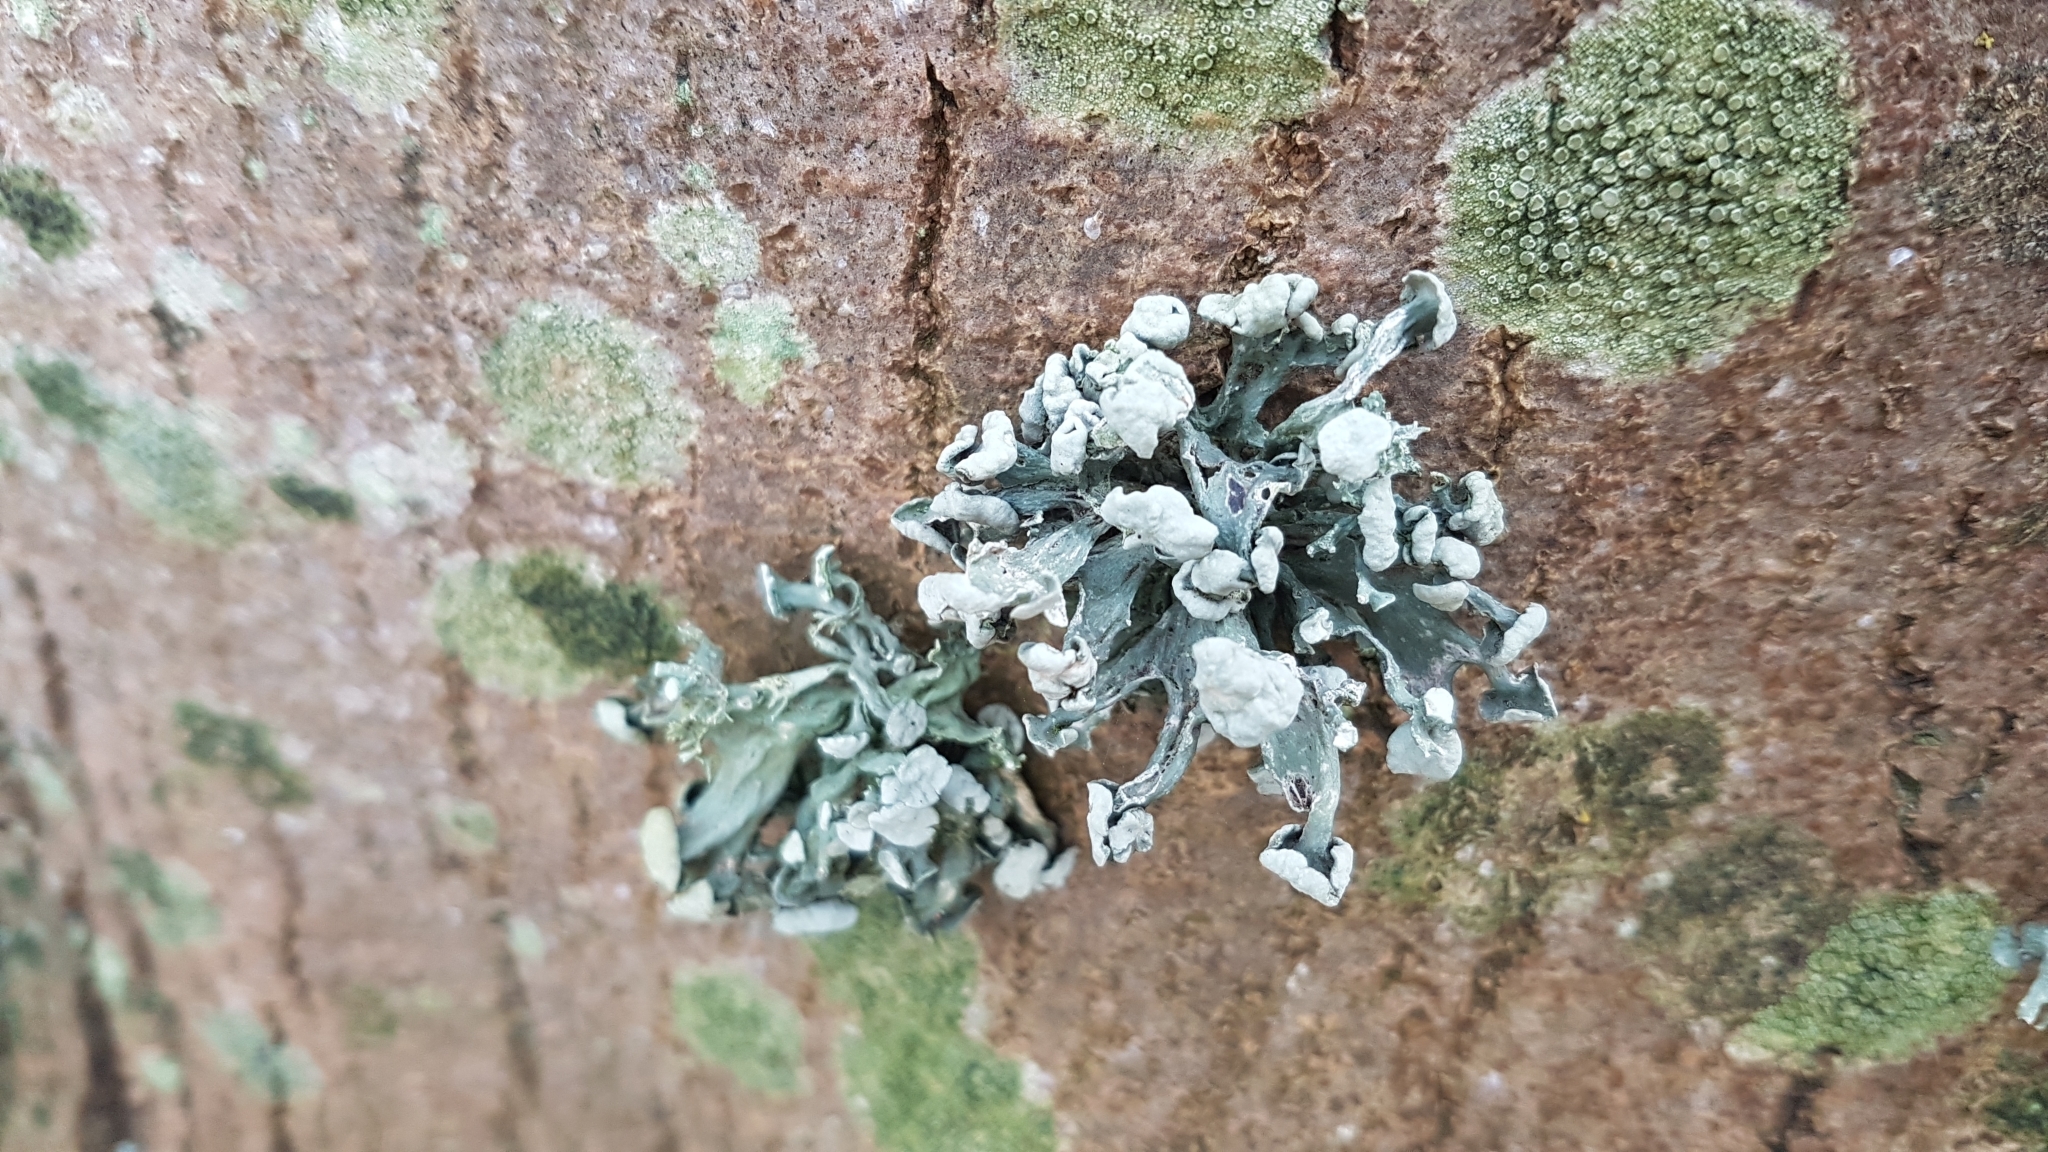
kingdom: Fungi
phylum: Ascomycota
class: Lecanoromycetes
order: Lecanorales
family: Ramalinaceae
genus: Ramalina
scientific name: Ramalina fastigiata
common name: Dotted ribbon lichen
